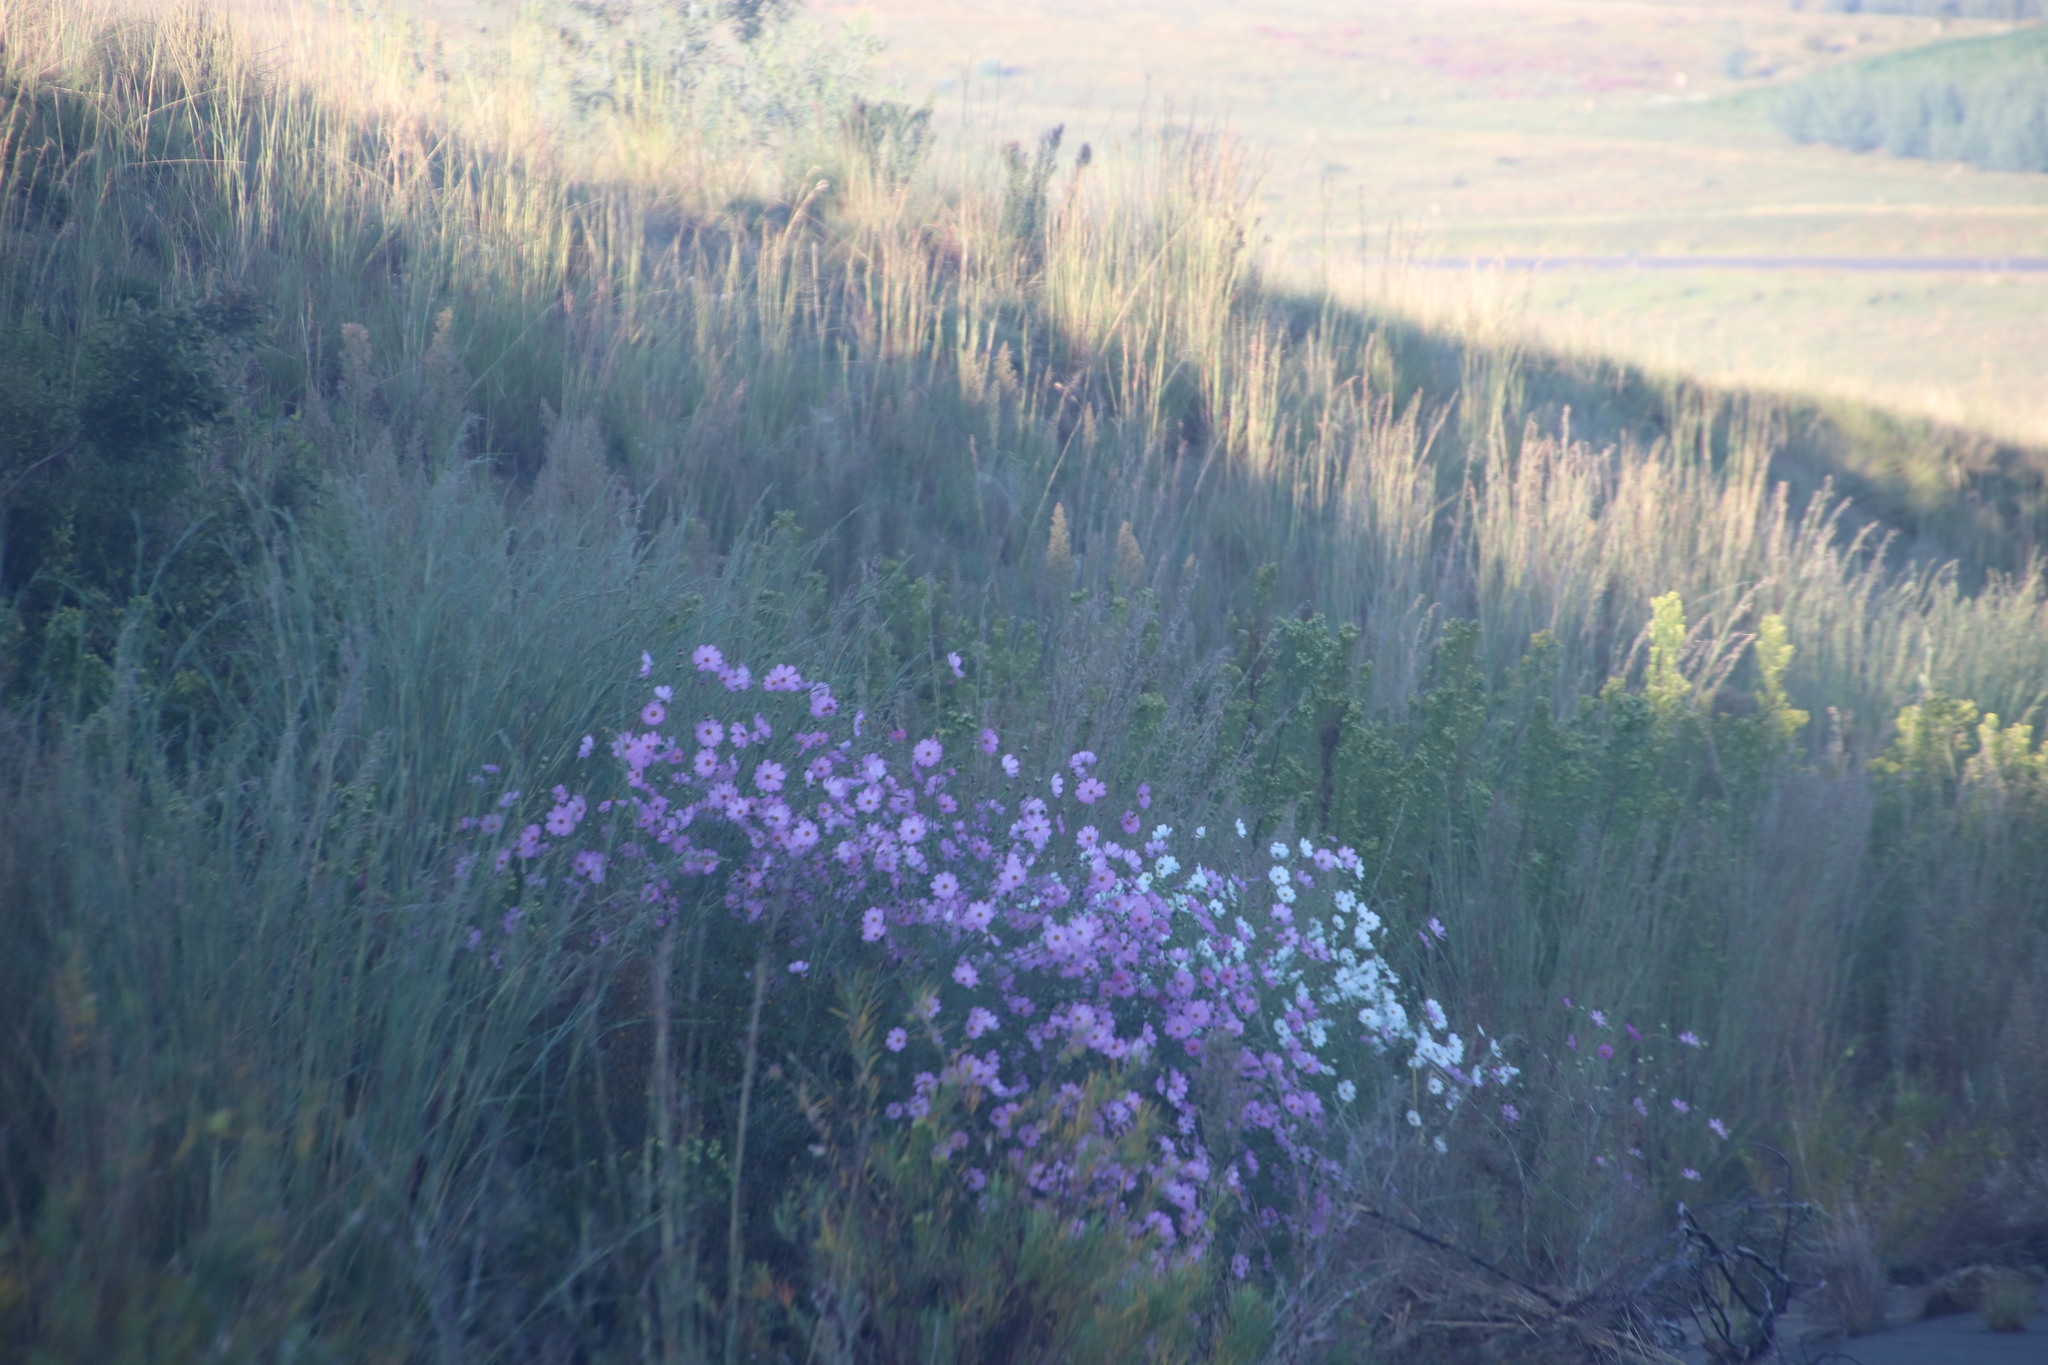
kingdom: Plantae
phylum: Tracheophyta
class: Magnoliopsida
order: Asterales
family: Asteraceae
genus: Cosmos
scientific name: Cosmos bipinnatus
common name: Garden cosmos
